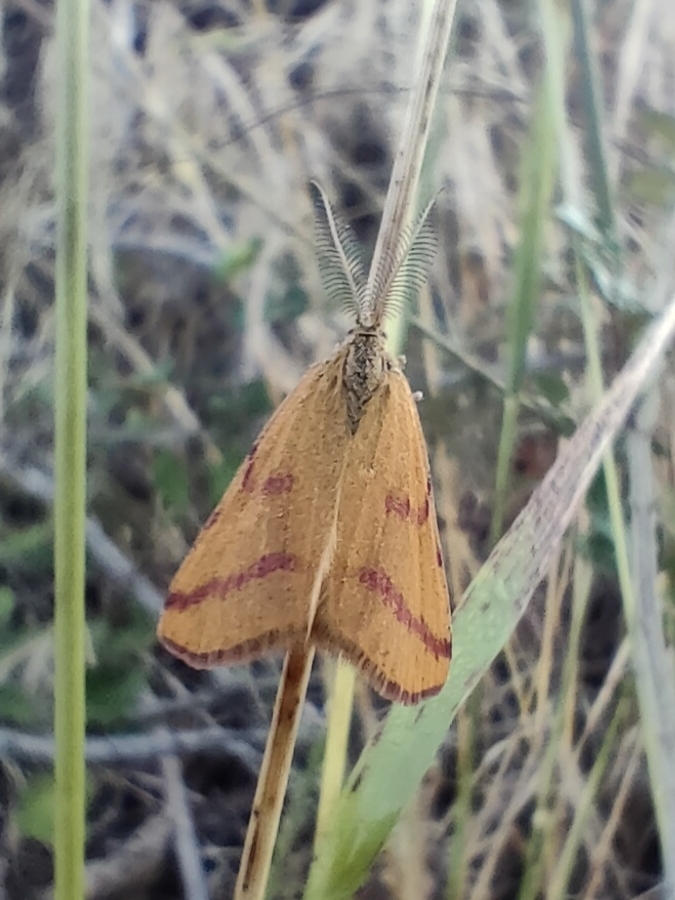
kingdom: Animalia
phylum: Arthropoda
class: Insecta
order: Lepidoptera
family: Geometridae
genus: Lythria
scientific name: Lythria purpuraria
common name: Purple-barred yellow
